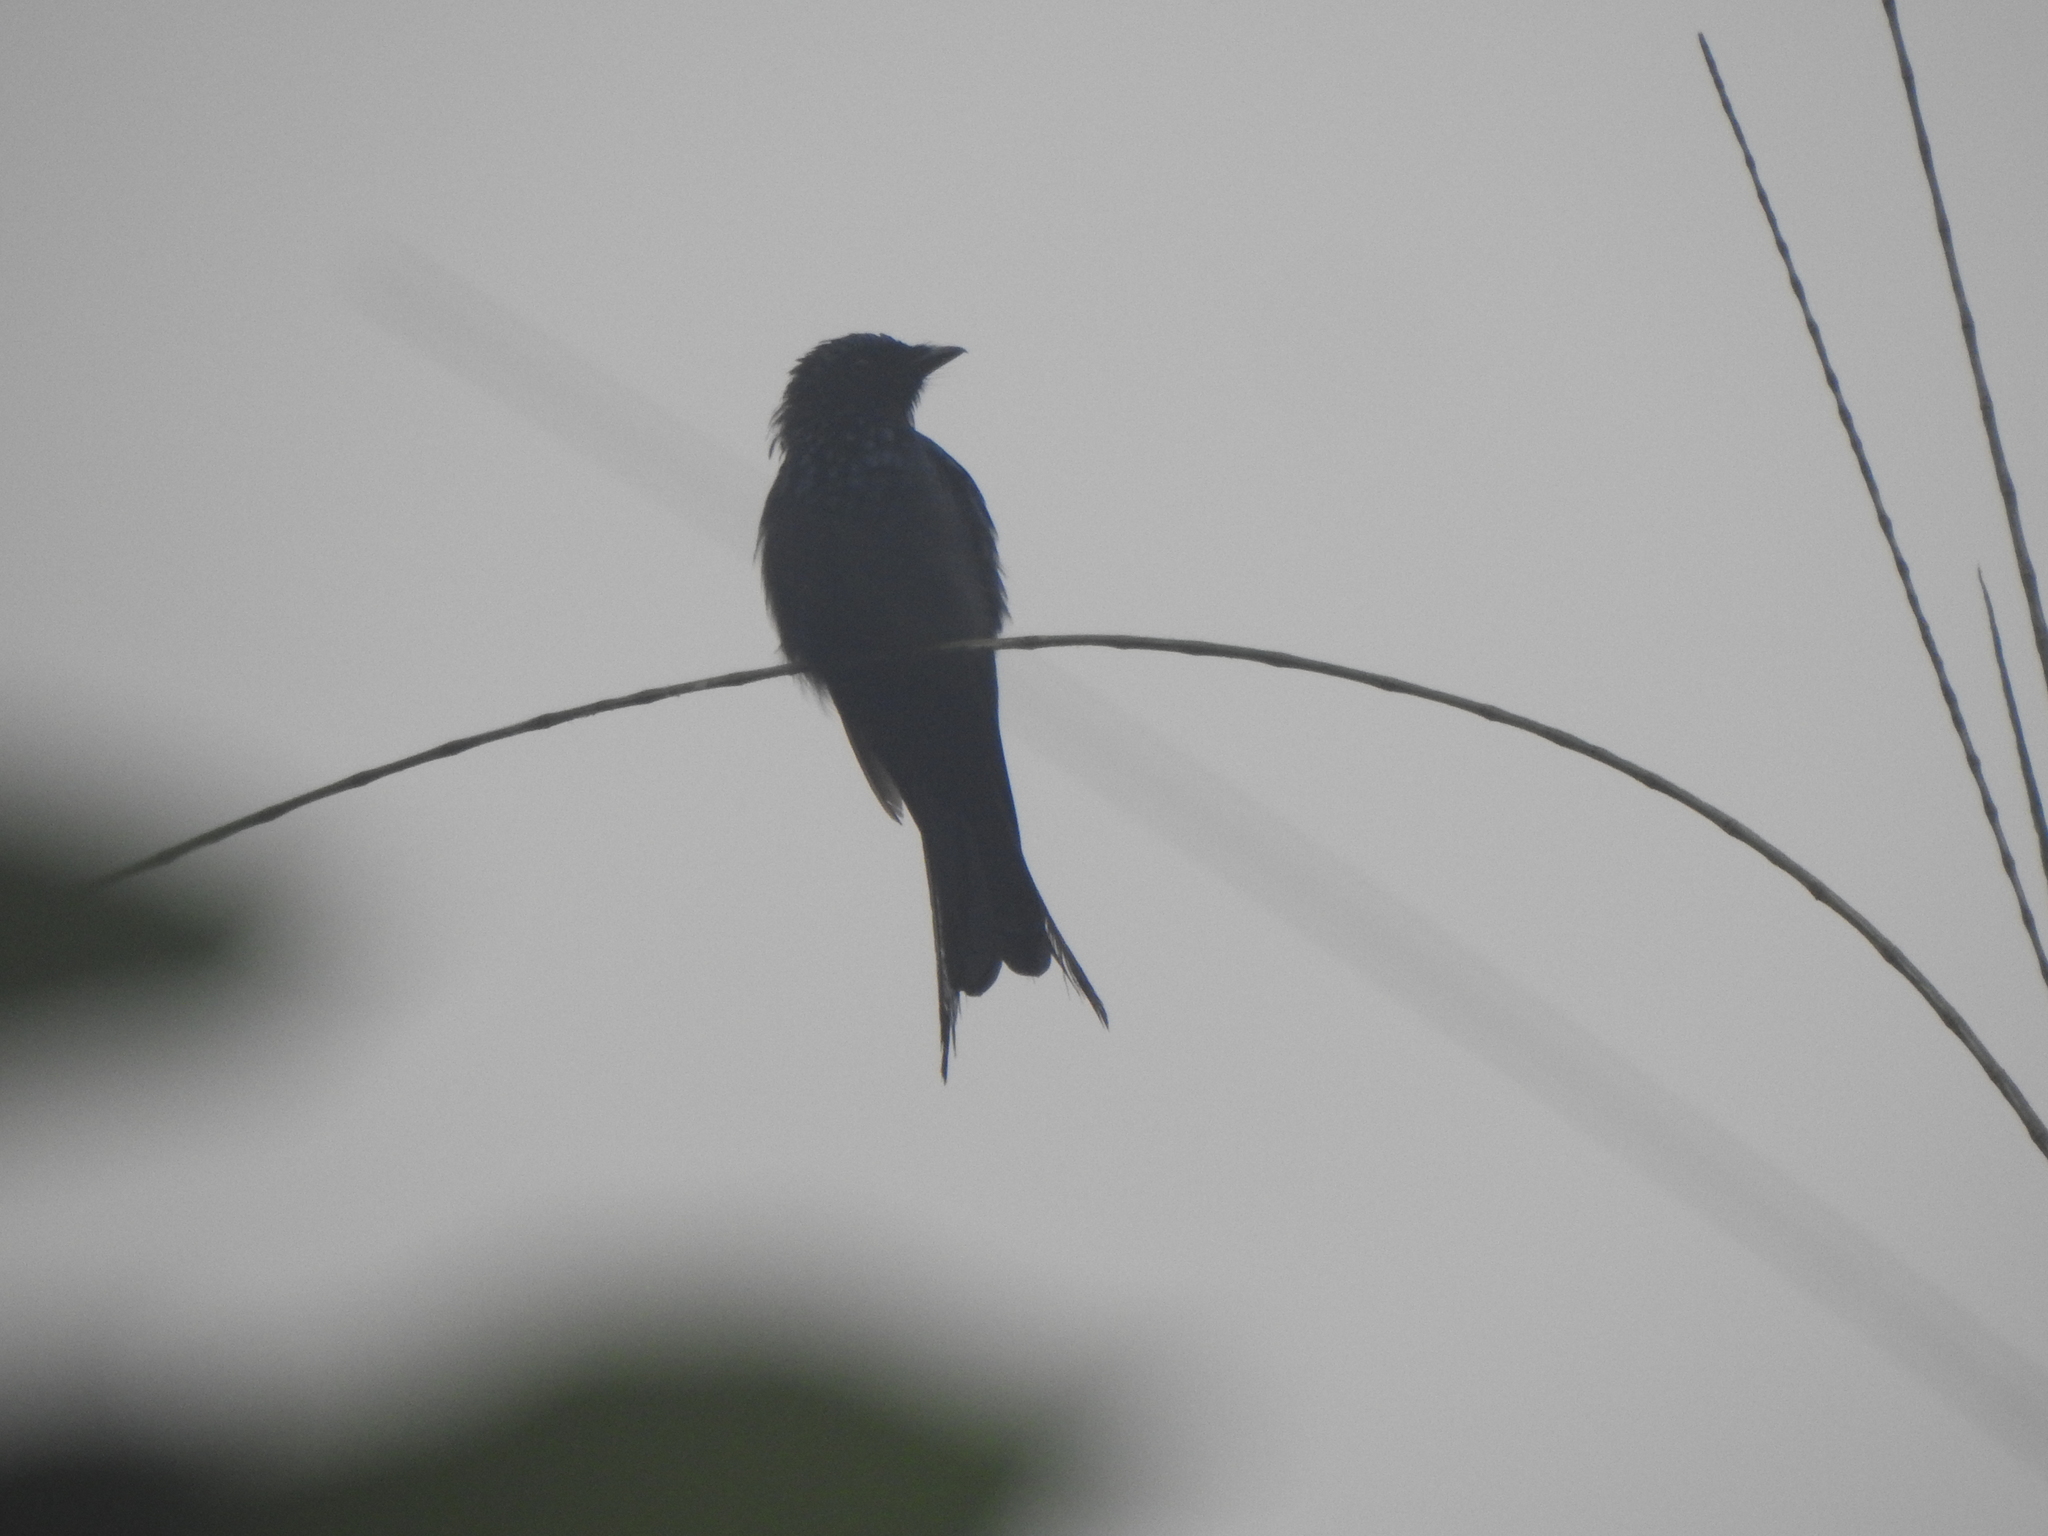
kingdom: Animalia
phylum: Chordata
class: Aves
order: Passeriformes
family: Dicruridae
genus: Dicrurus
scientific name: Dicrurus aeneus
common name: Bronzed drongo
